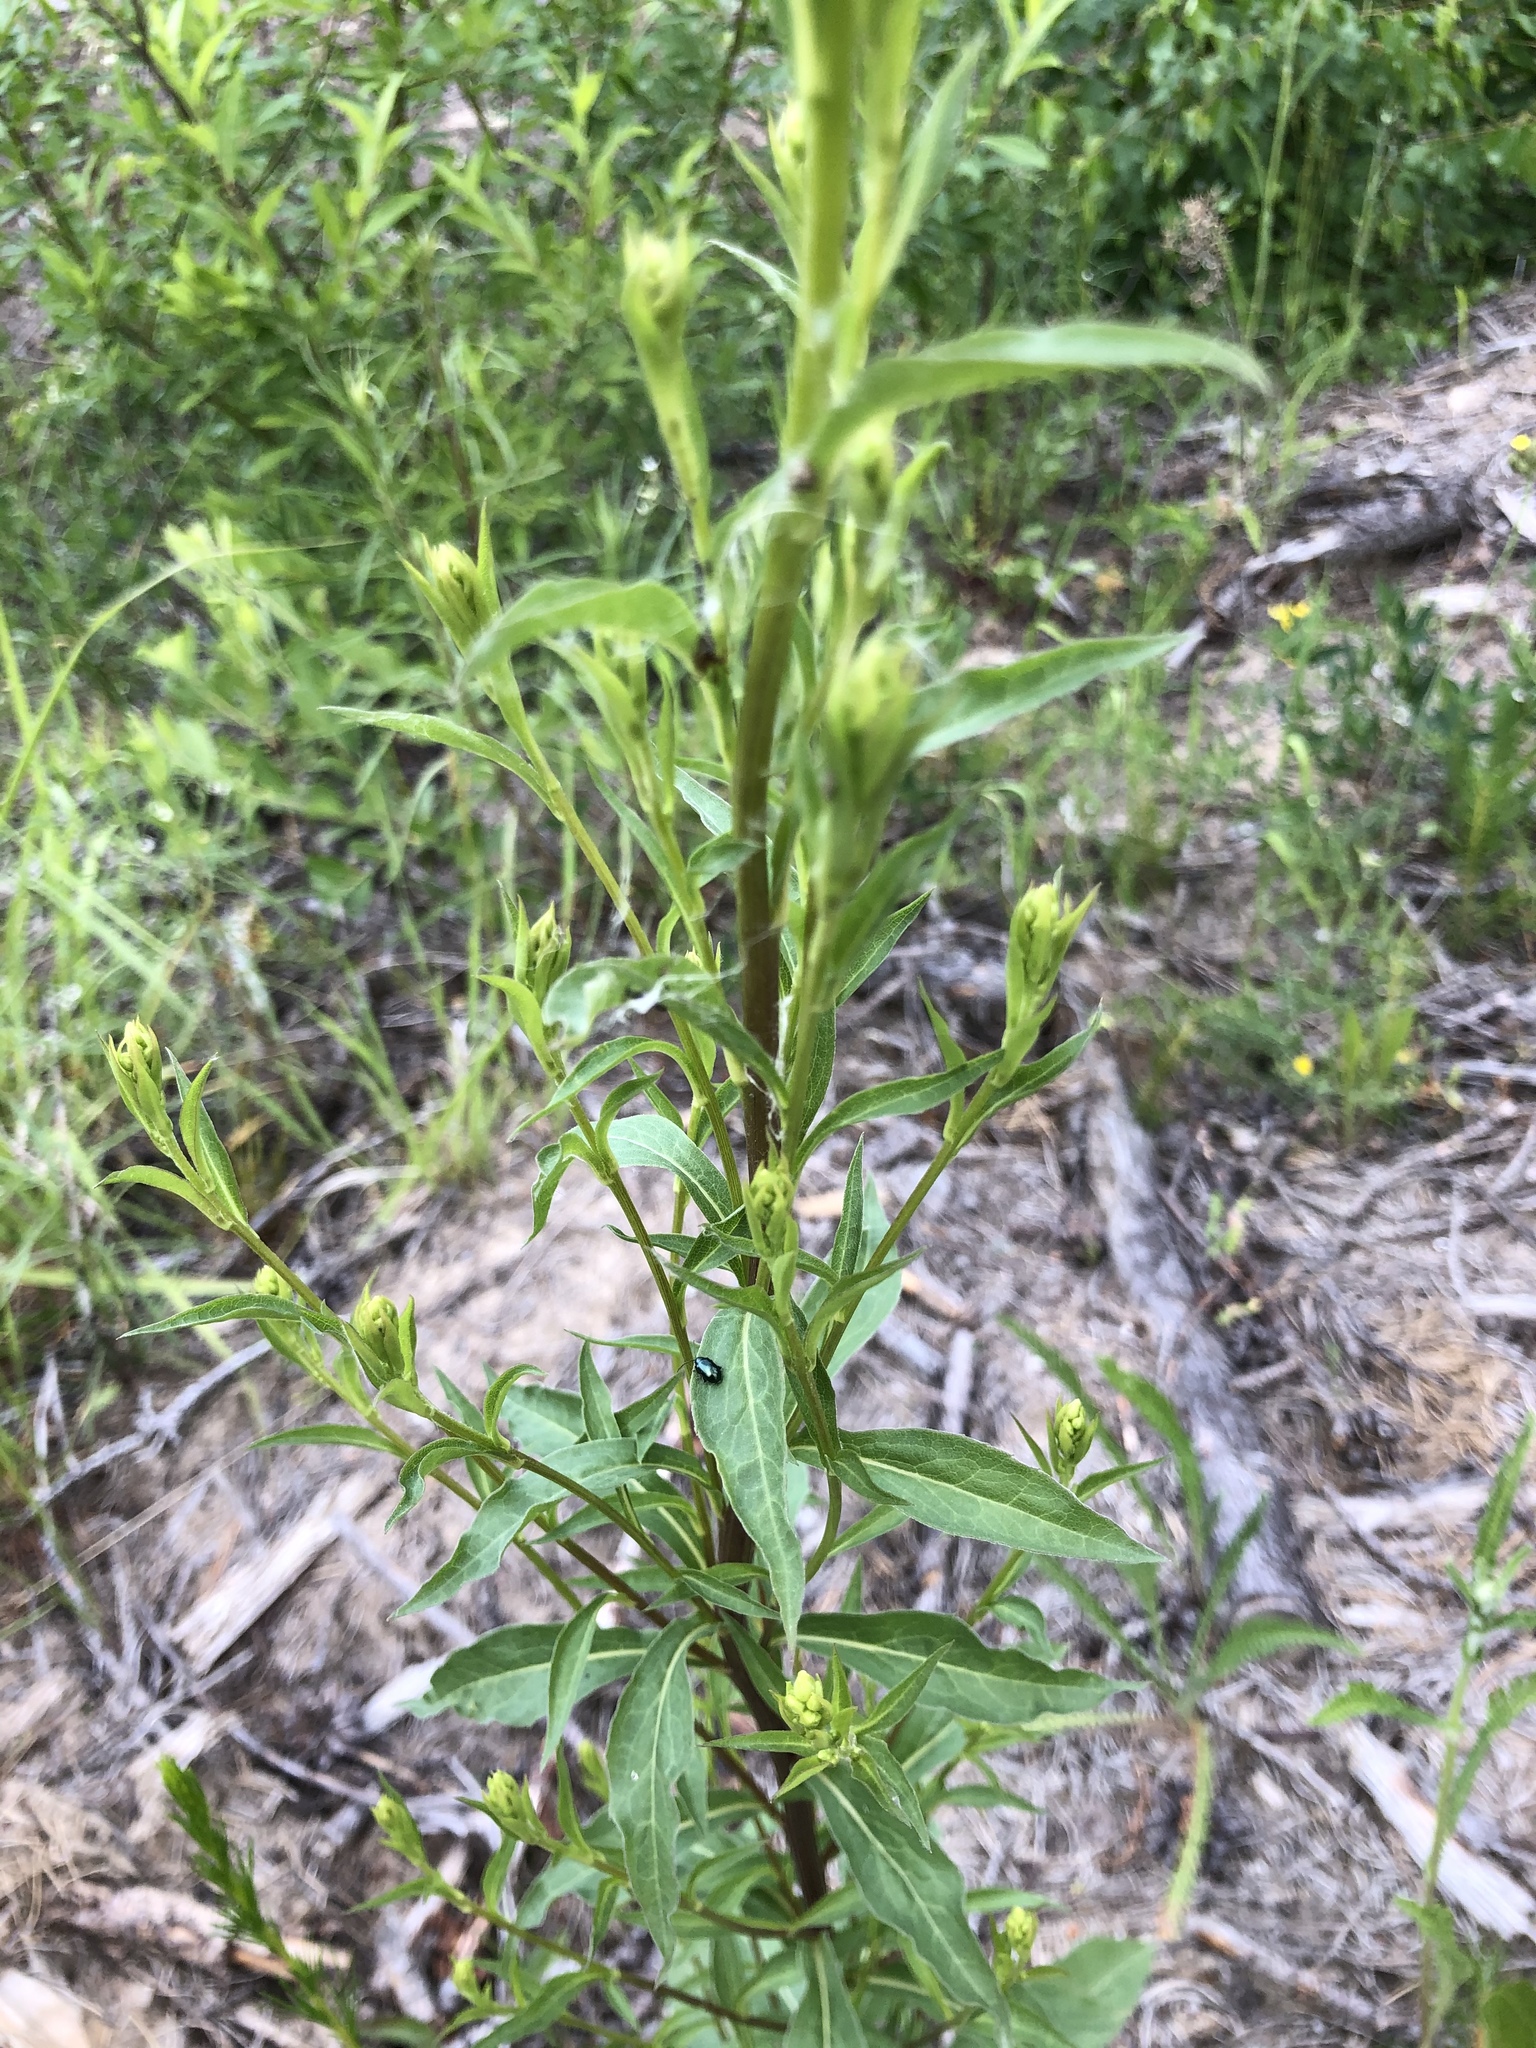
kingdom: Plantae
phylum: Tracheophyta
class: Magnoliopsida
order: Asterales
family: Asteraceae
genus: Solidago
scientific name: Solidago virgaurea
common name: Goldenrod
